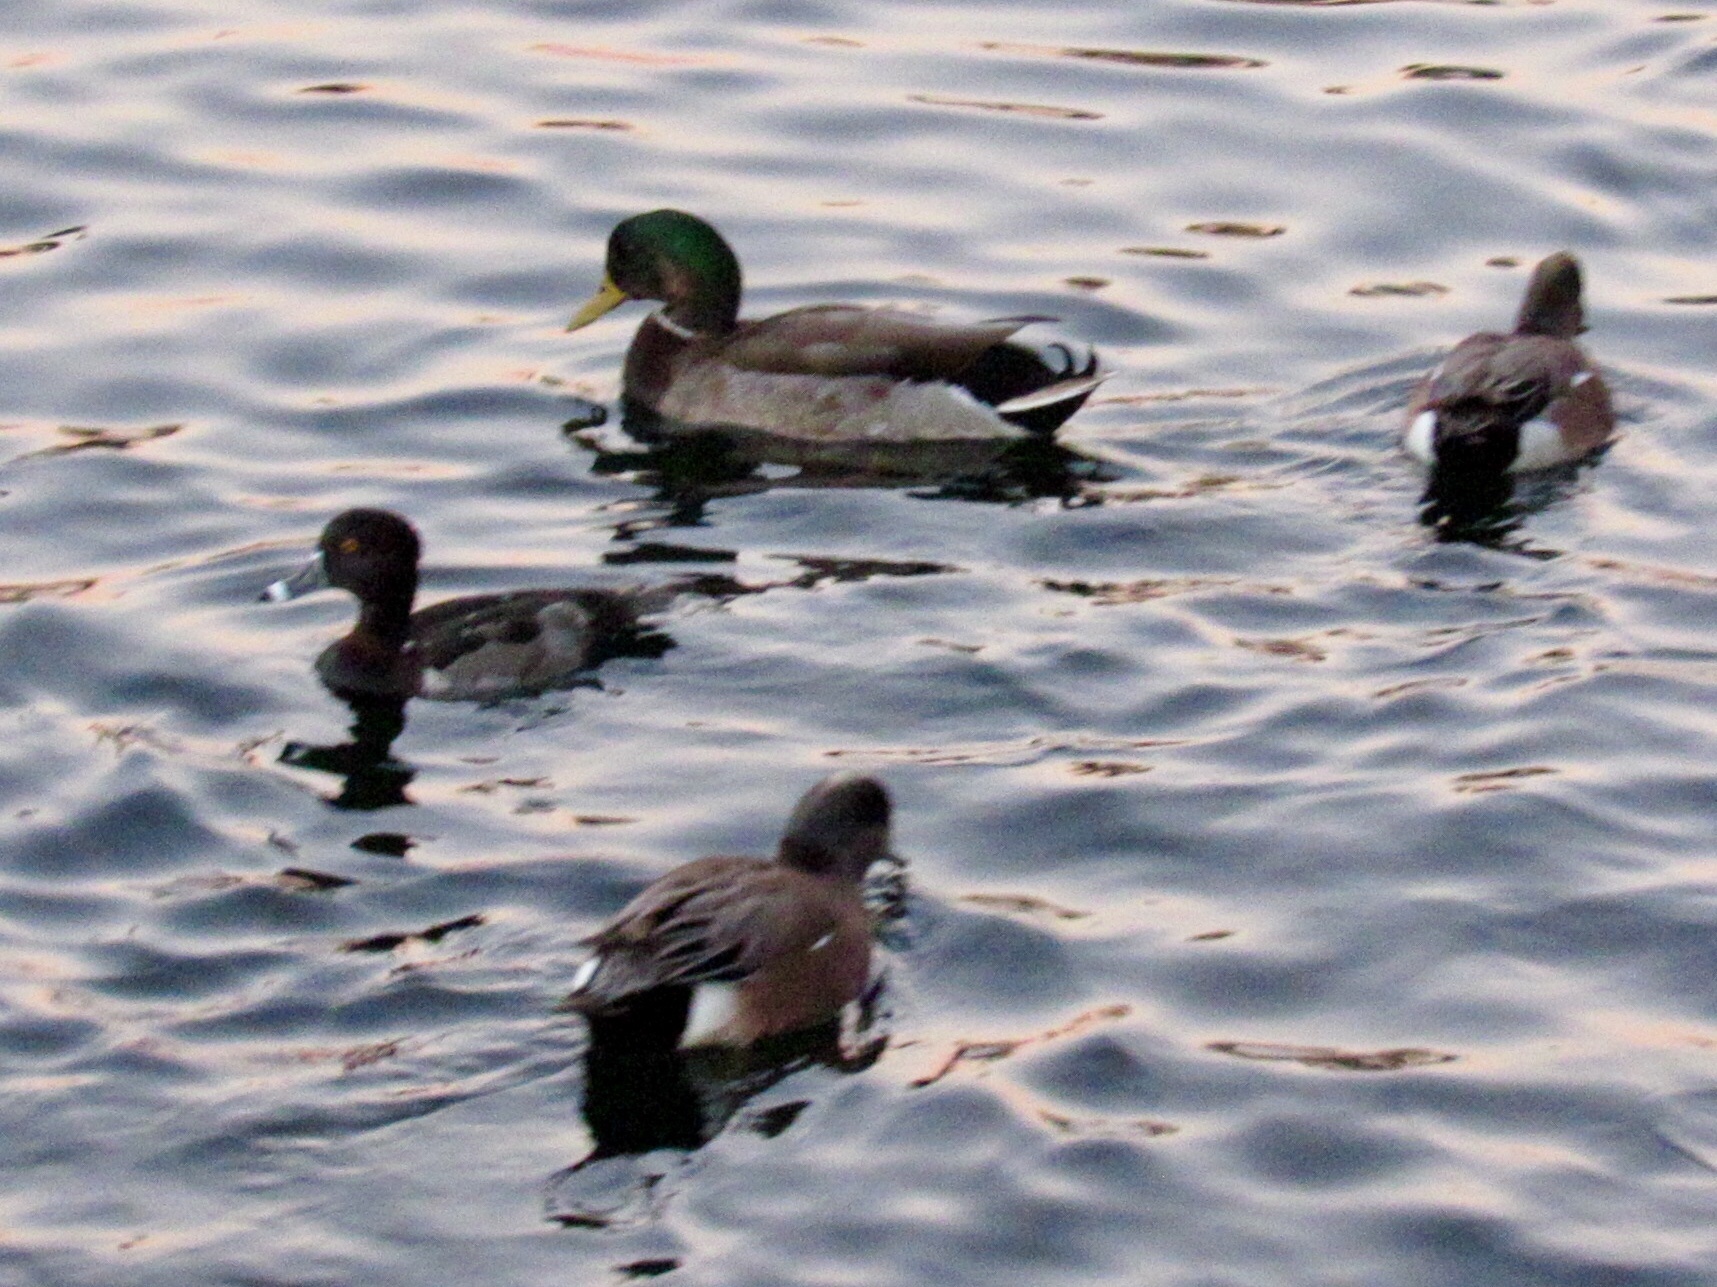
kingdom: Animalia
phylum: Chordata
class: Aves
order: Anseriformes
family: Anatidae
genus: Aythya
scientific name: Aythya collaris
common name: Ring-necked duck
